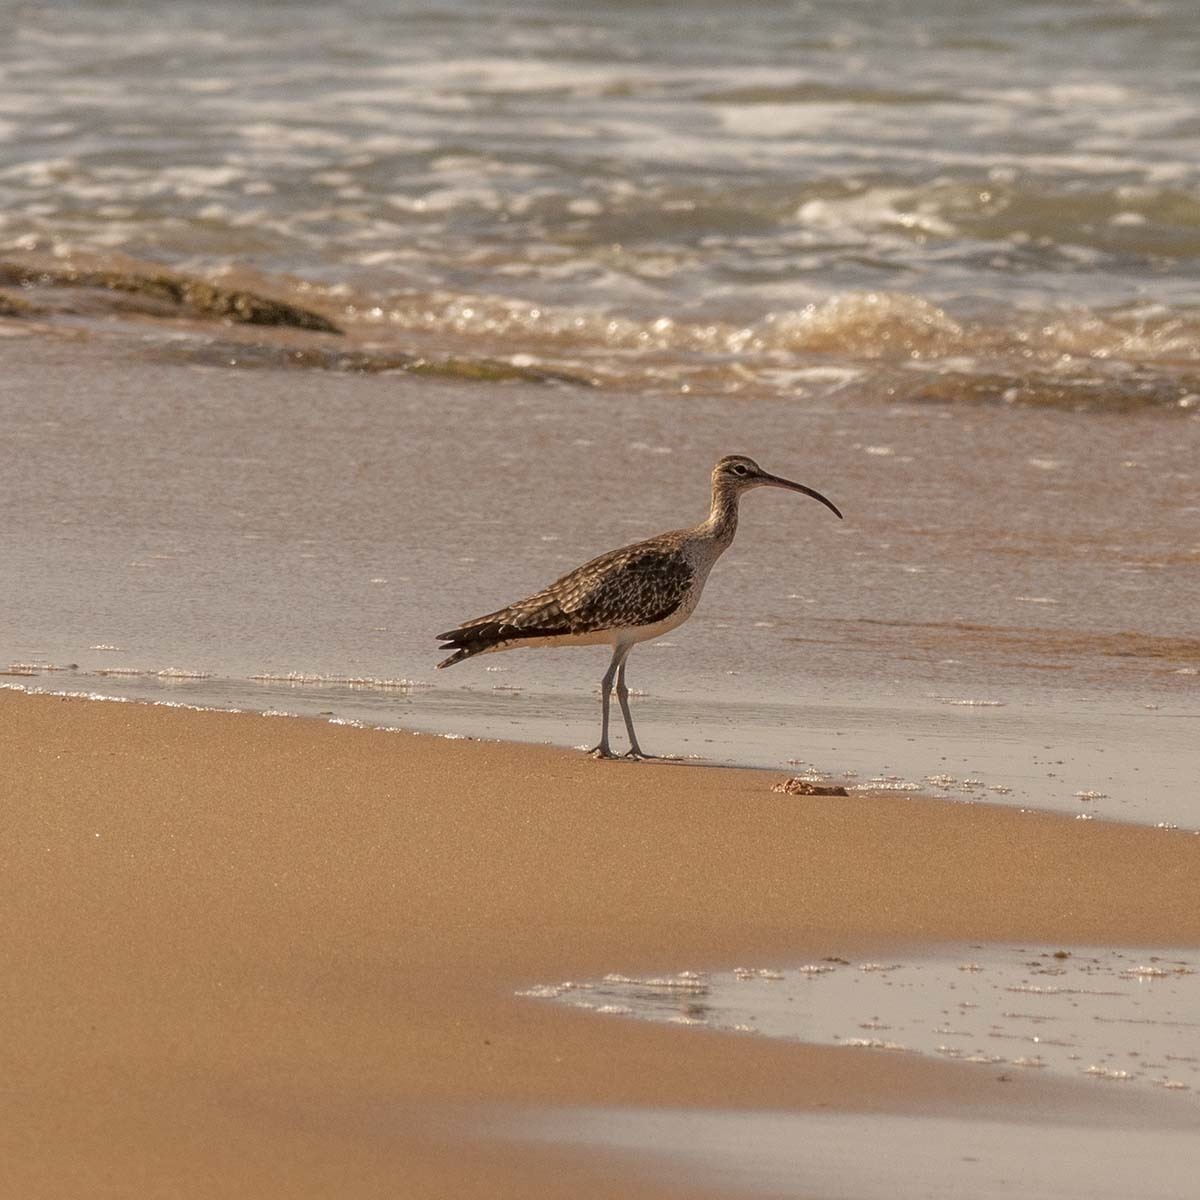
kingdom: Animalia
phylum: Chordata
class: Aves
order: Charadriiformes
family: Scolopacidae
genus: Numenius
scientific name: Numenius phaeopus
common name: Whimbrel
